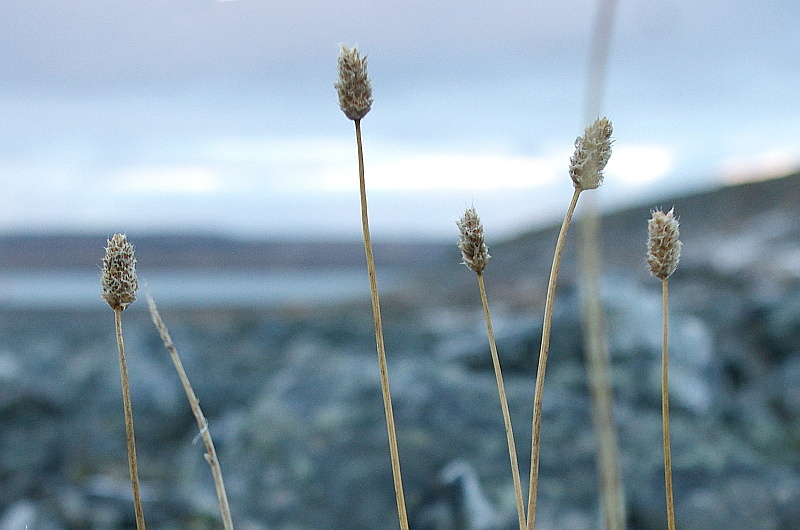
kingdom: Plantae
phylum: Tracheophyta
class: Liliopsida
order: Poales
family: Poaceae
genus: Alopecurus
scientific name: Alopecurus magellanicus
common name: Alpine foxtail
